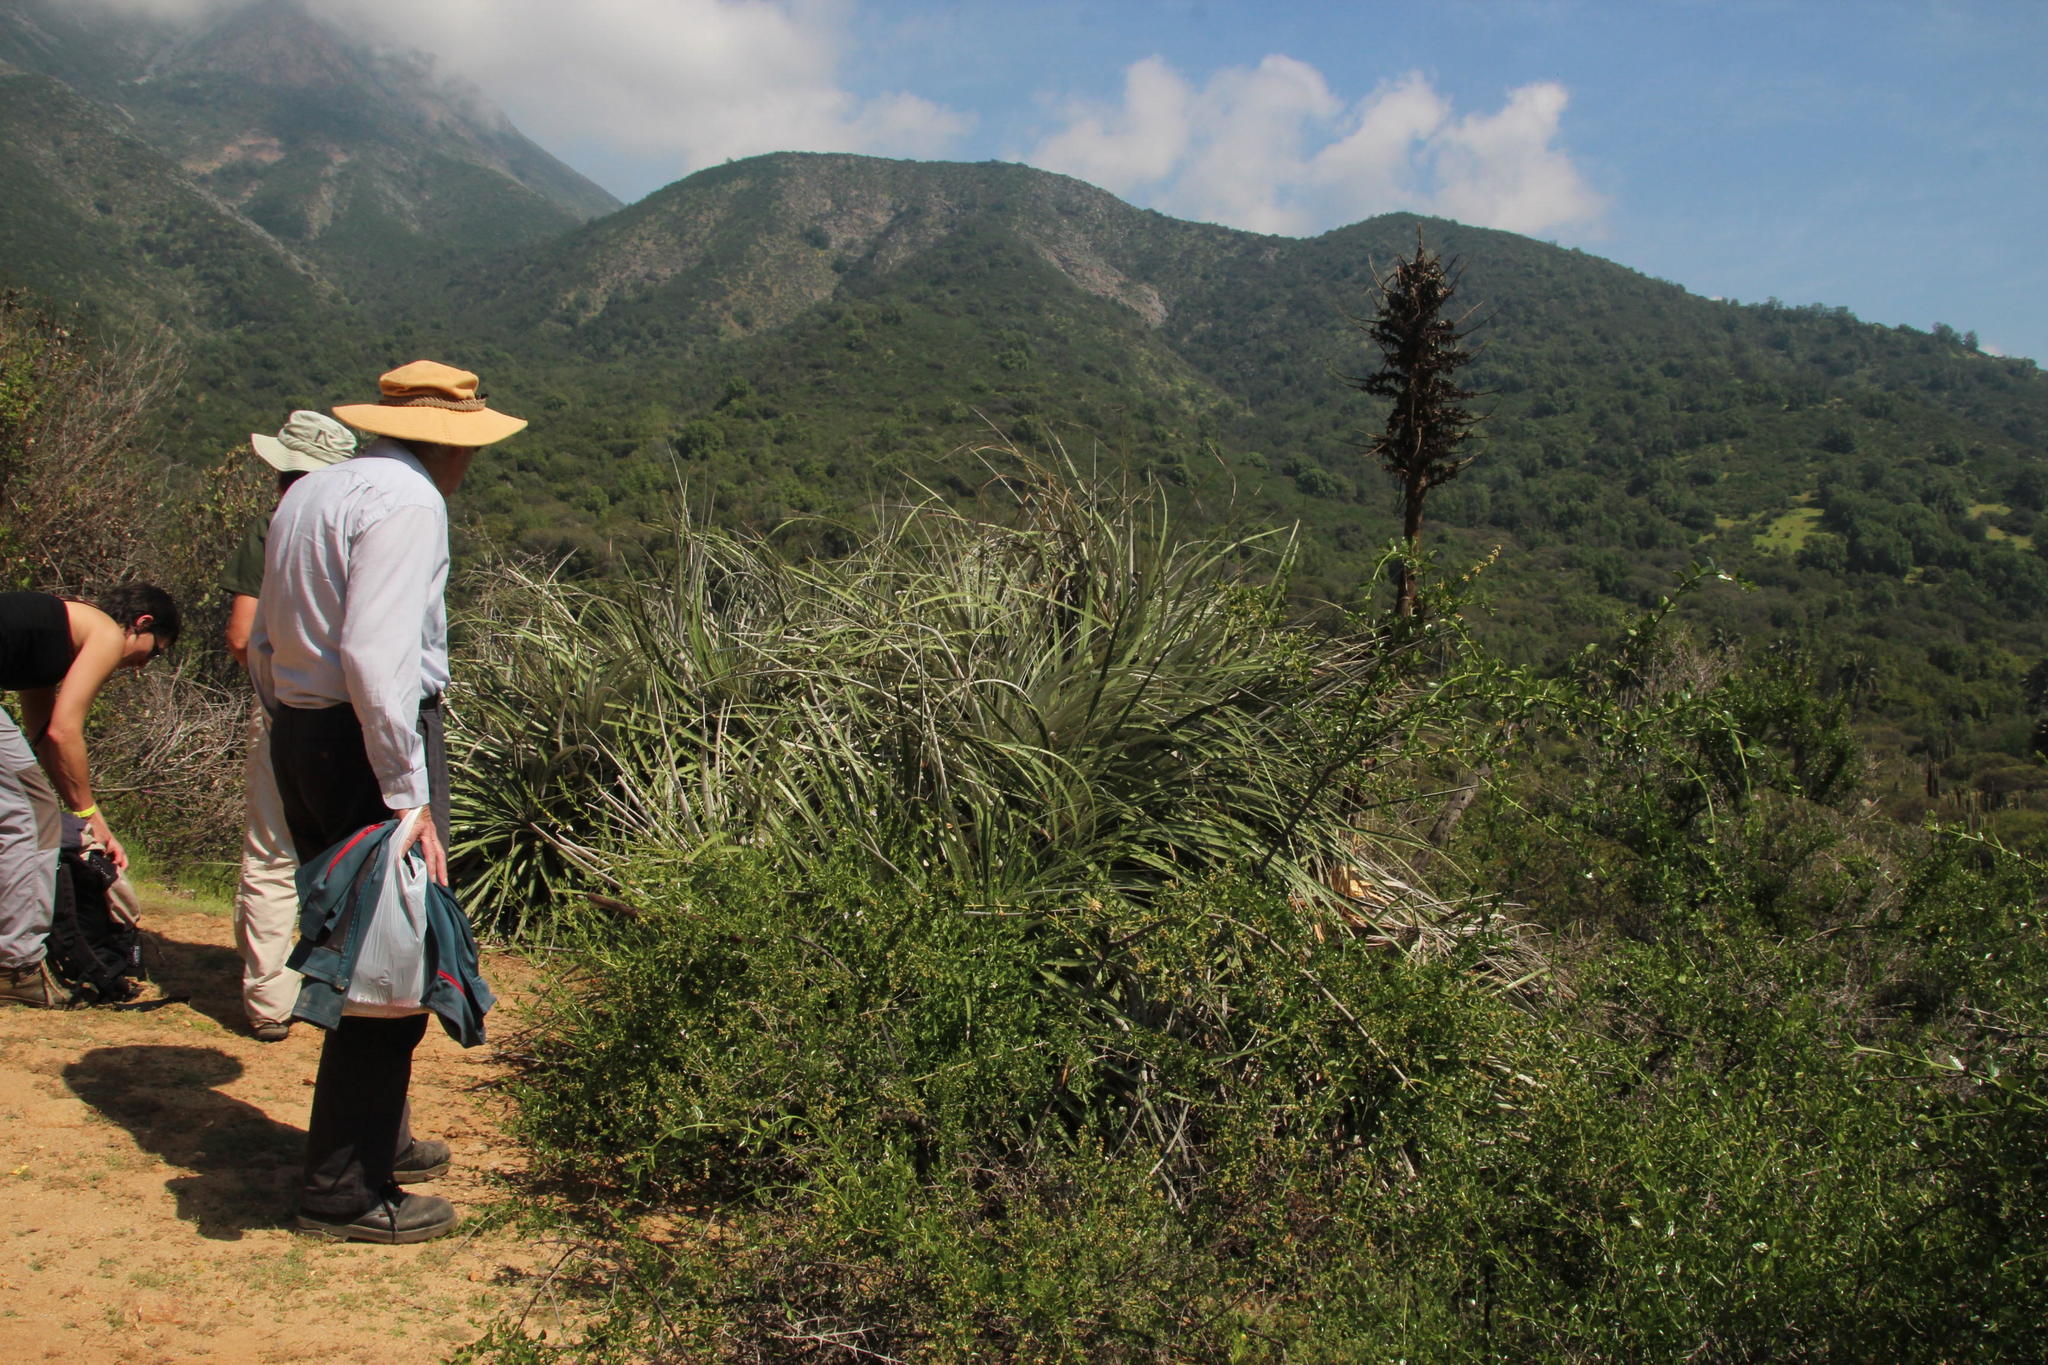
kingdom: Plantae
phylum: Tracheophyta
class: Liliopsida
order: Poales
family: Bromeliaceae
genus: Puya
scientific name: Puya alpestris
